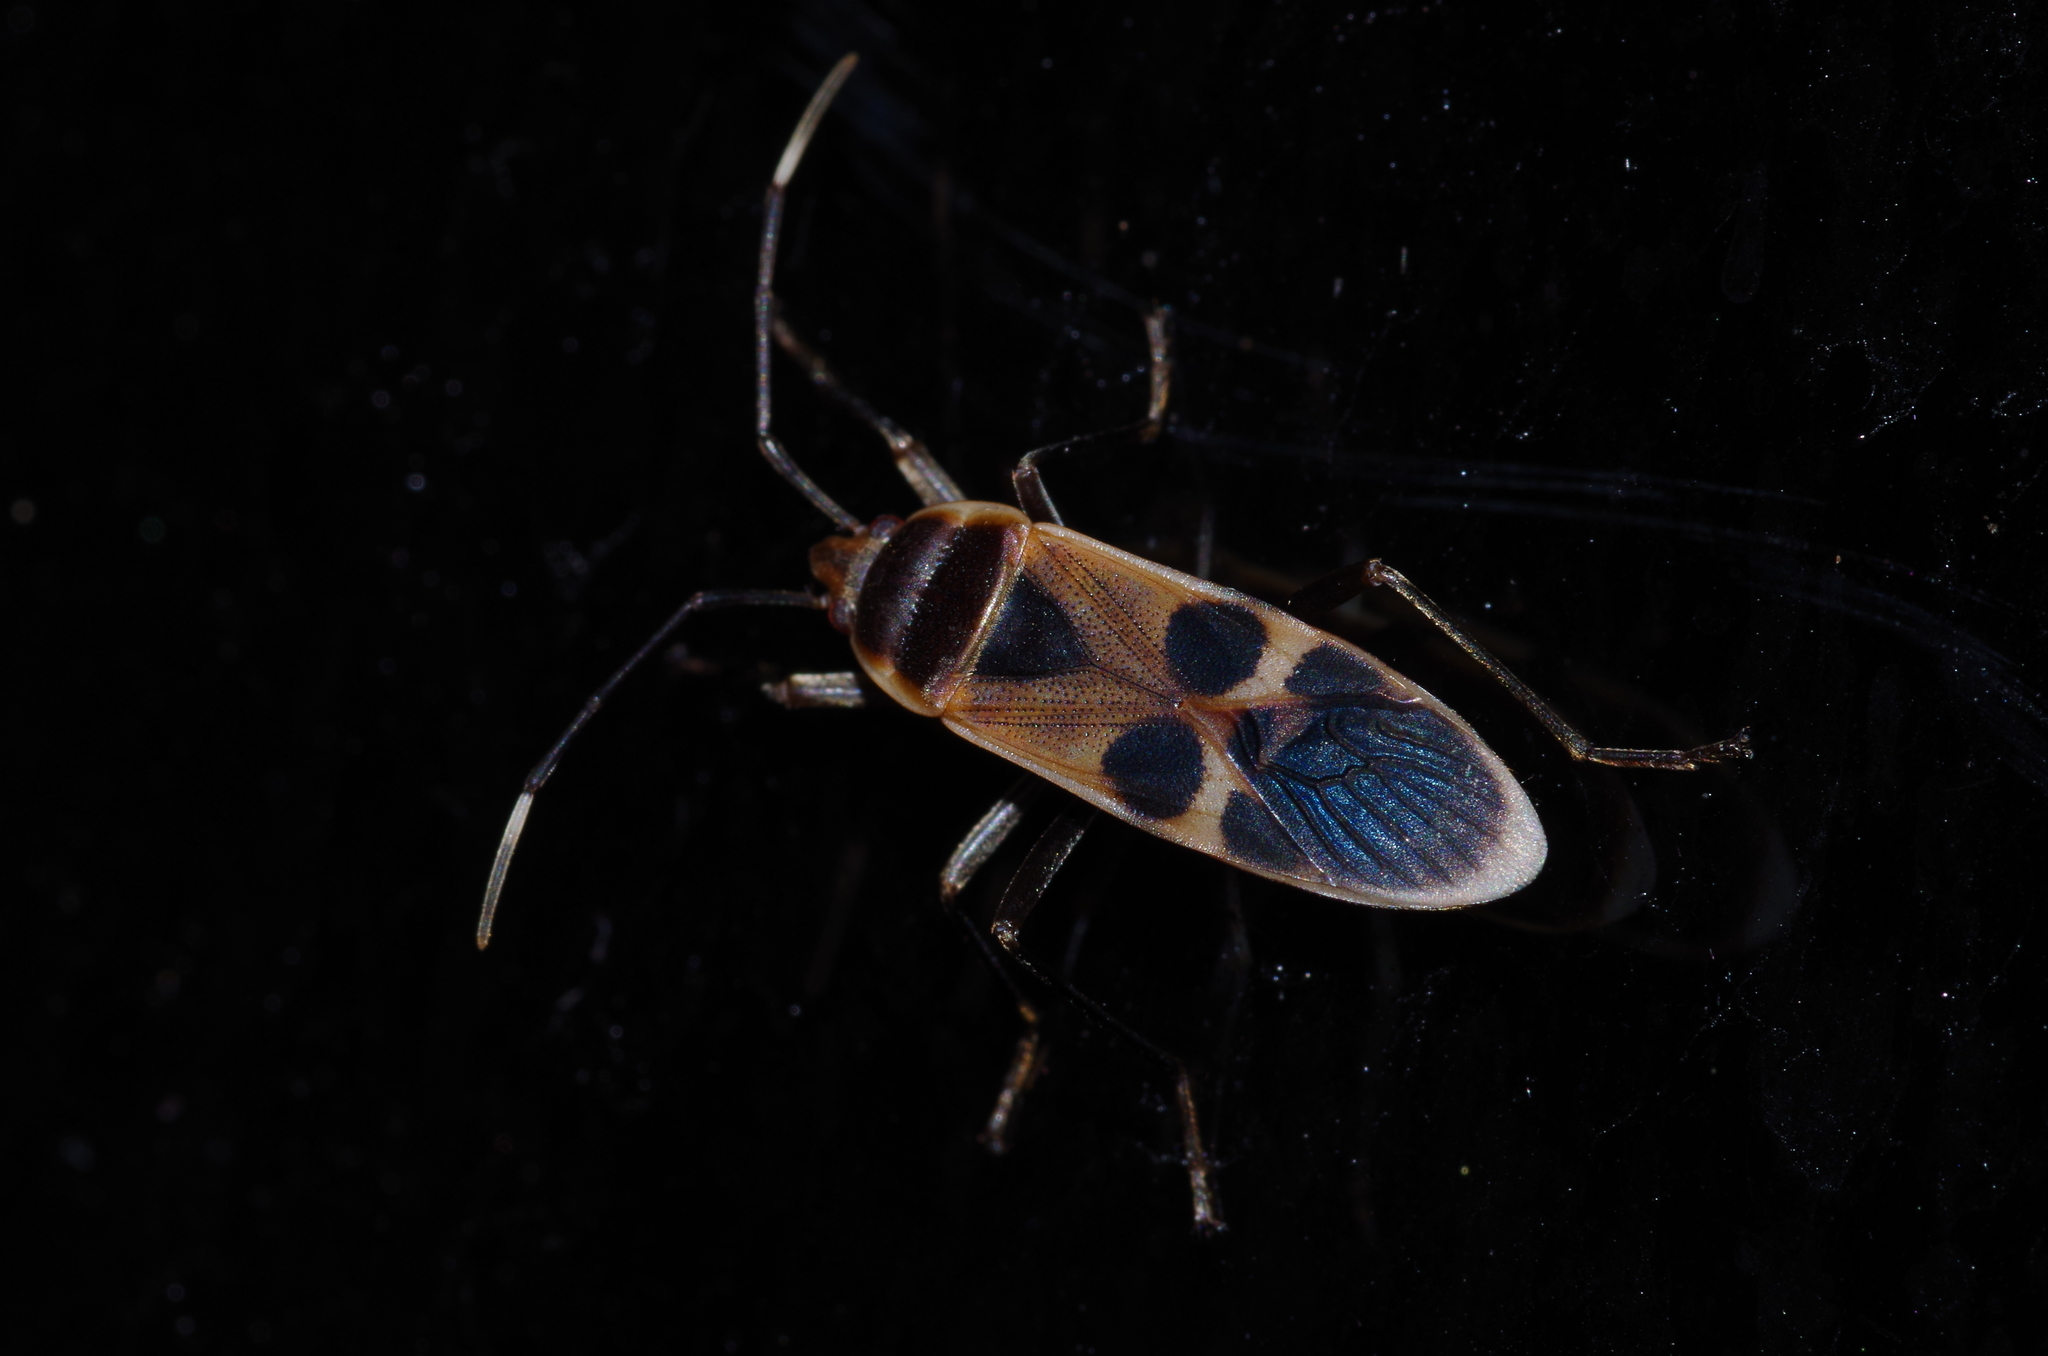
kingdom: Animalia
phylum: Arthropoda
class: Insecta
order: Hemiptera
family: Largidae
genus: Physopelta
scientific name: Physopelta gutta
